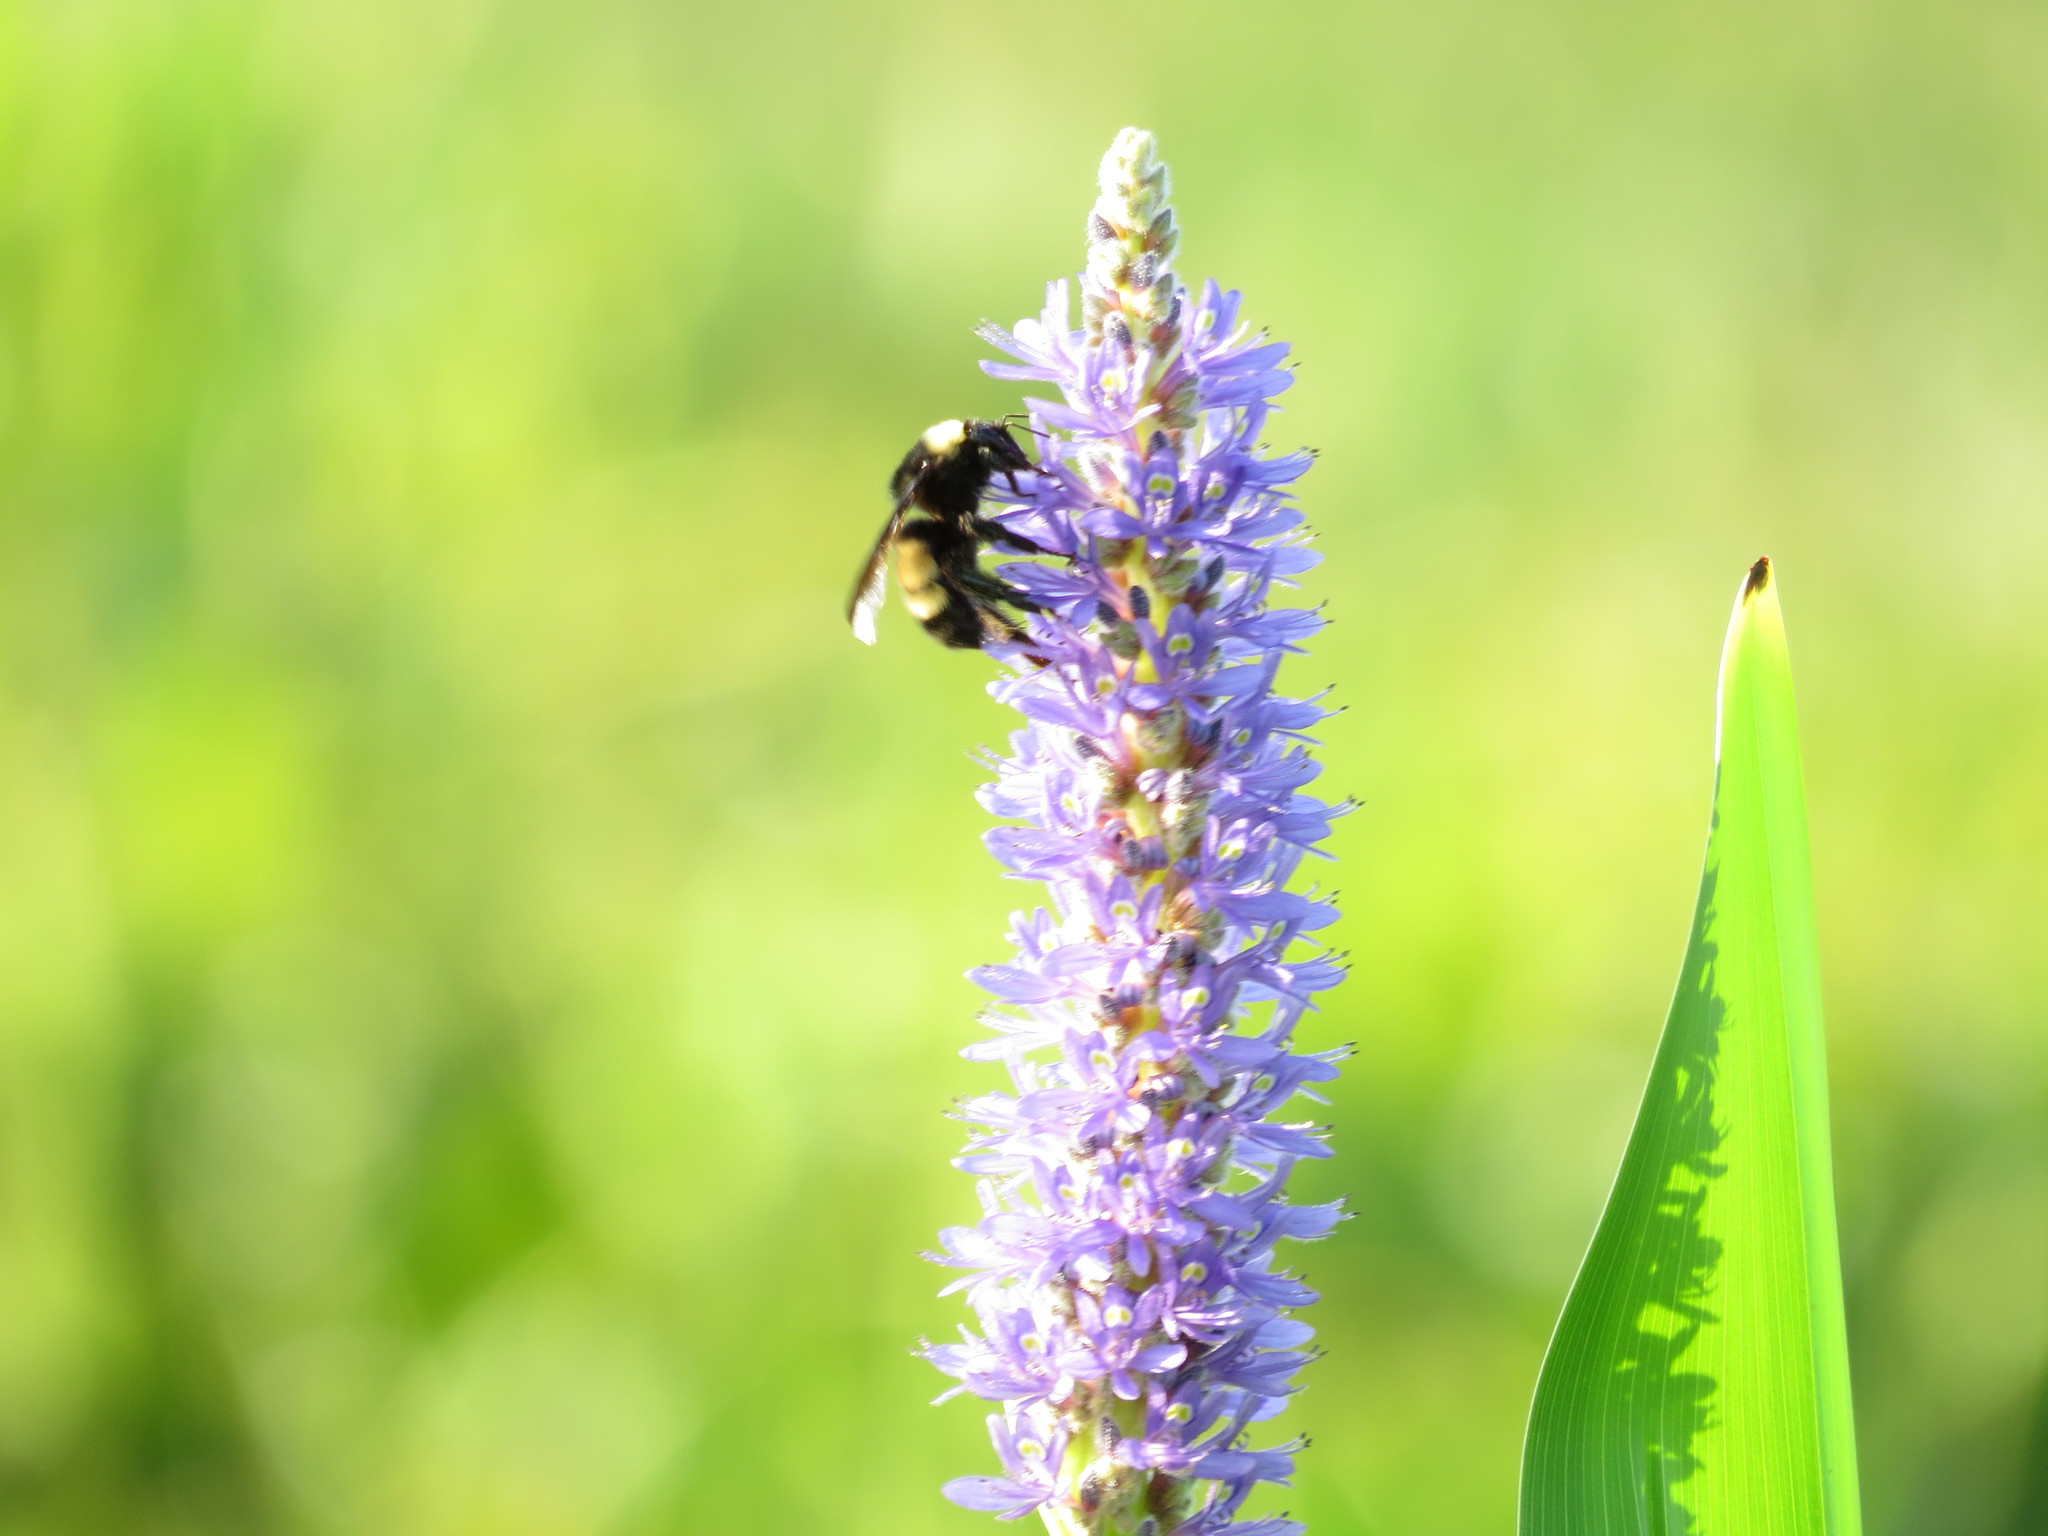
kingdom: Animalia
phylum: Arthropoda
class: Insecta
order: Hymenoptera
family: Apidae
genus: Bombus
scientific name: Bombus pensylvanicus
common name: Bumble bee
